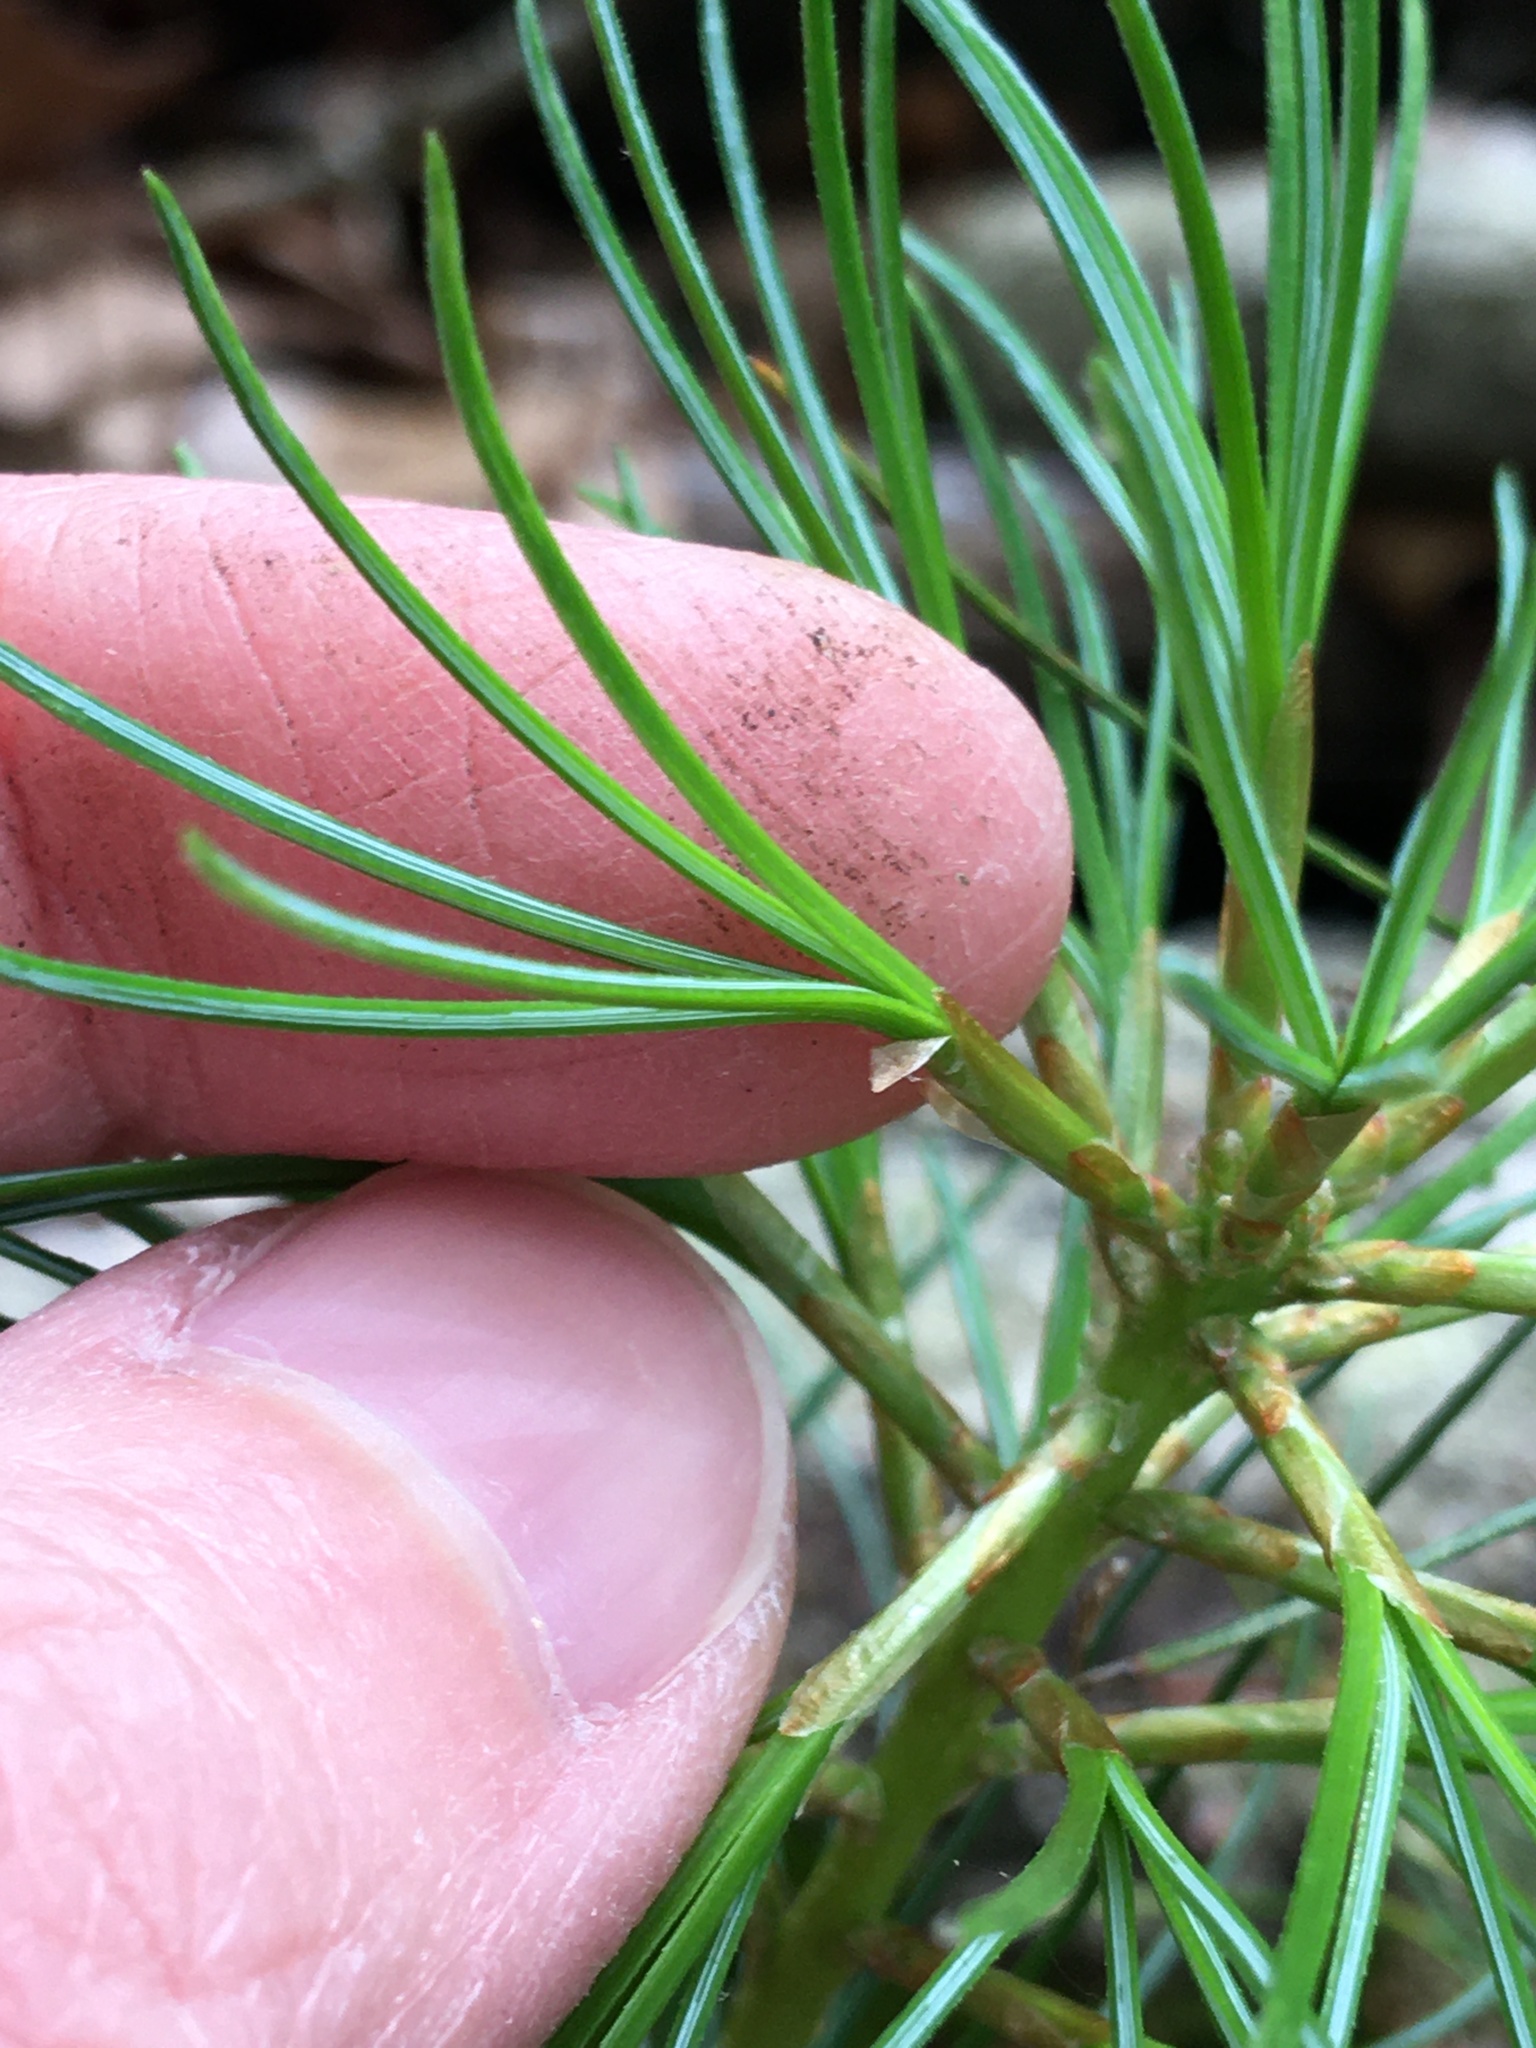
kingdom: Plantae
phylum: Tracheophyta
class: Pinopsida
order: Pinales
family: Pinaceae
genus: Pinus
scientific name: Pinus strobus
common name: Weymouth pine
